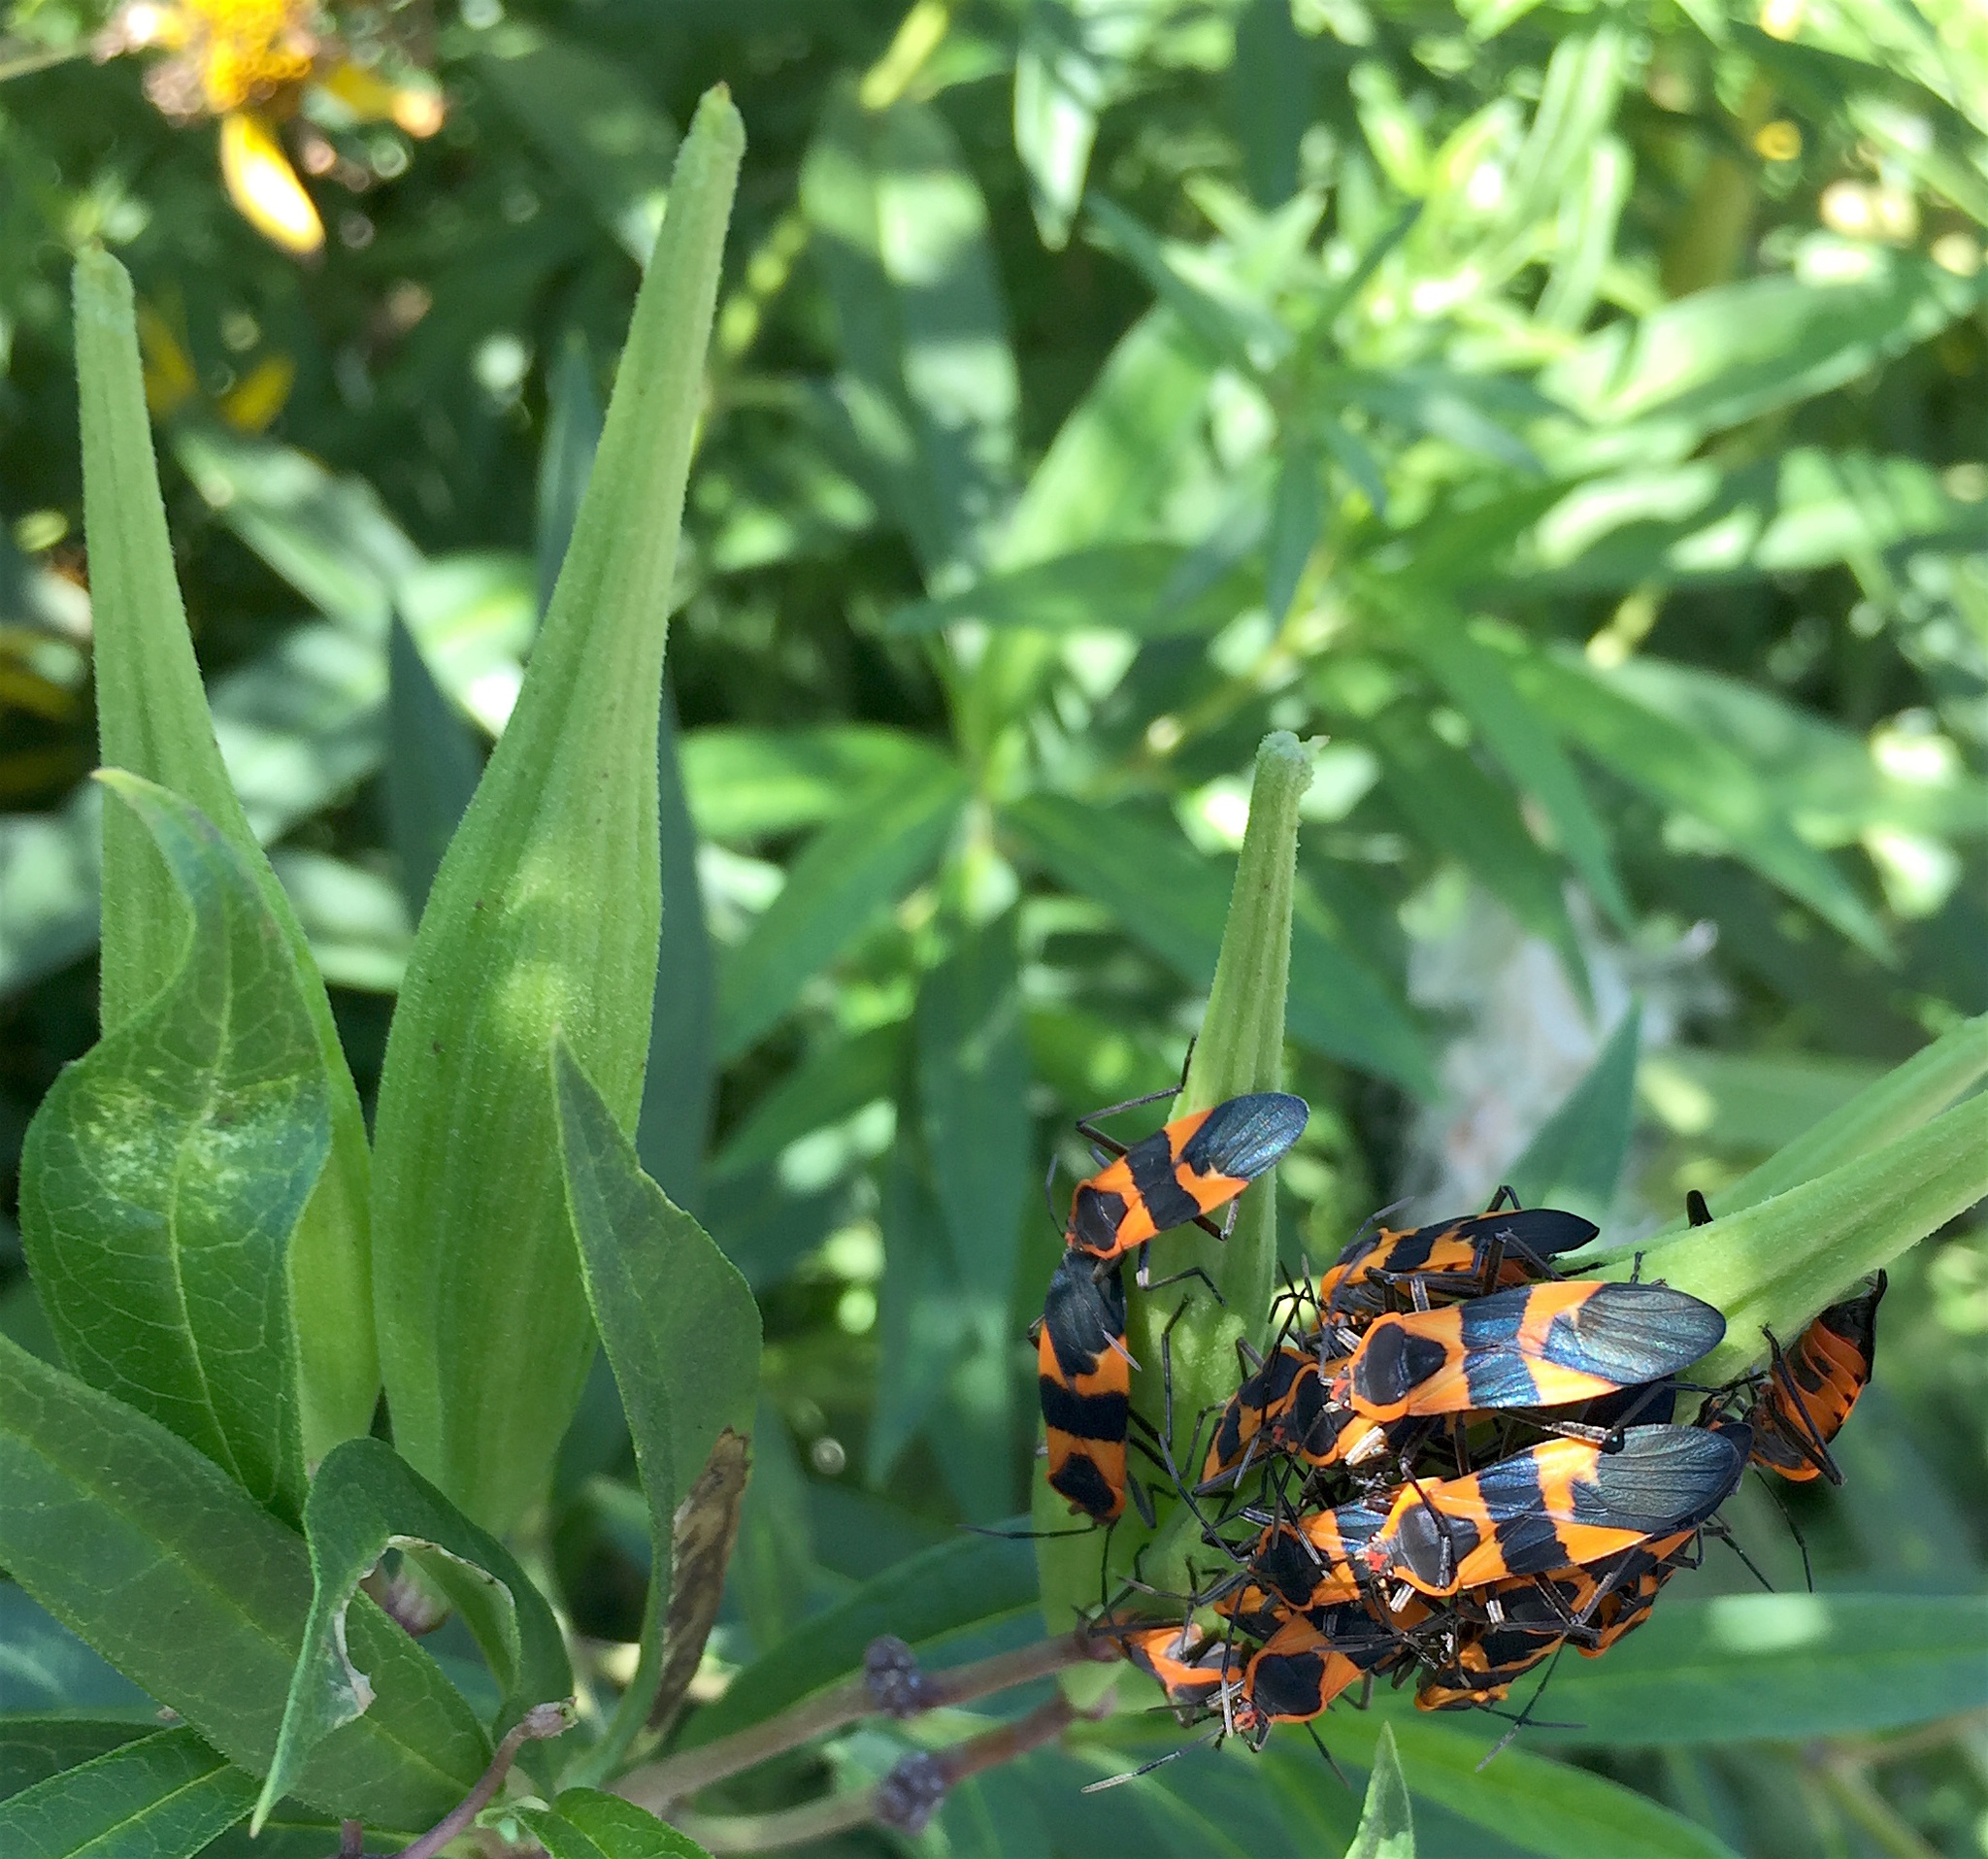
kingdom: Animalia
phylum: Arthropoda
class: Insecta
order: Hemiptera
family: Lygaeidae
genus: Oncopeltus
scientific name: Oncopeltus fasciatus
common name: Large milkweed bug
